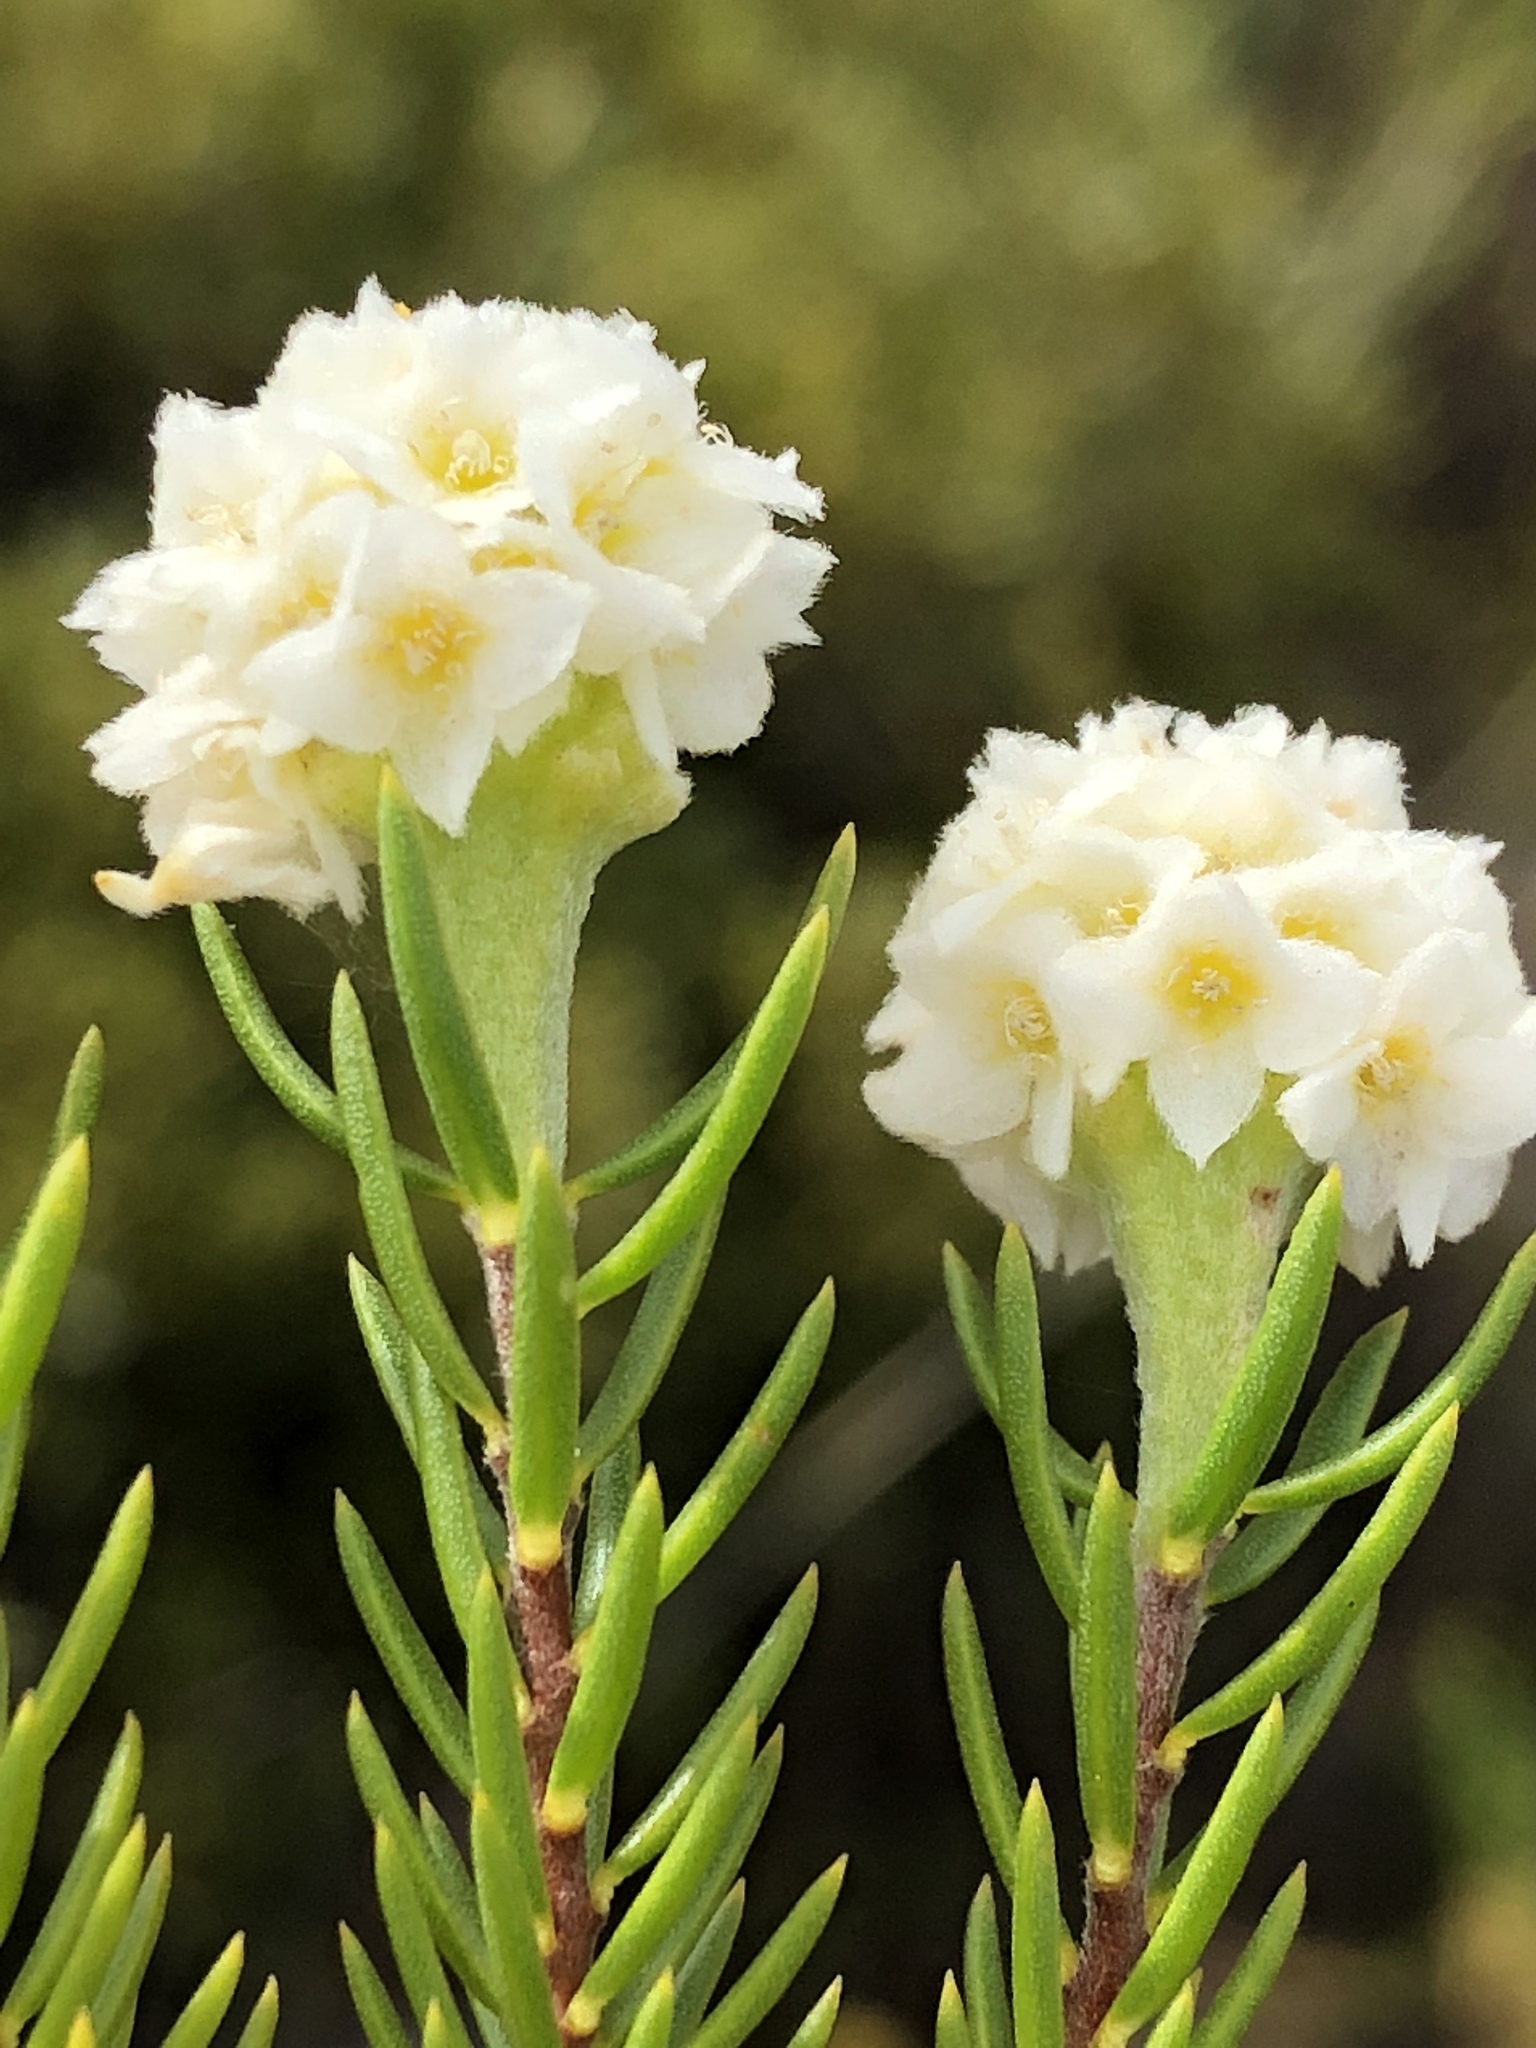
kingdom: Plantae
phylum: Tracheophyta
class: Magnoliopsida
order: Malvales
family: Thymelaeaceae
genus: Lachnaea
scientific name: Lachnaea densiflora
